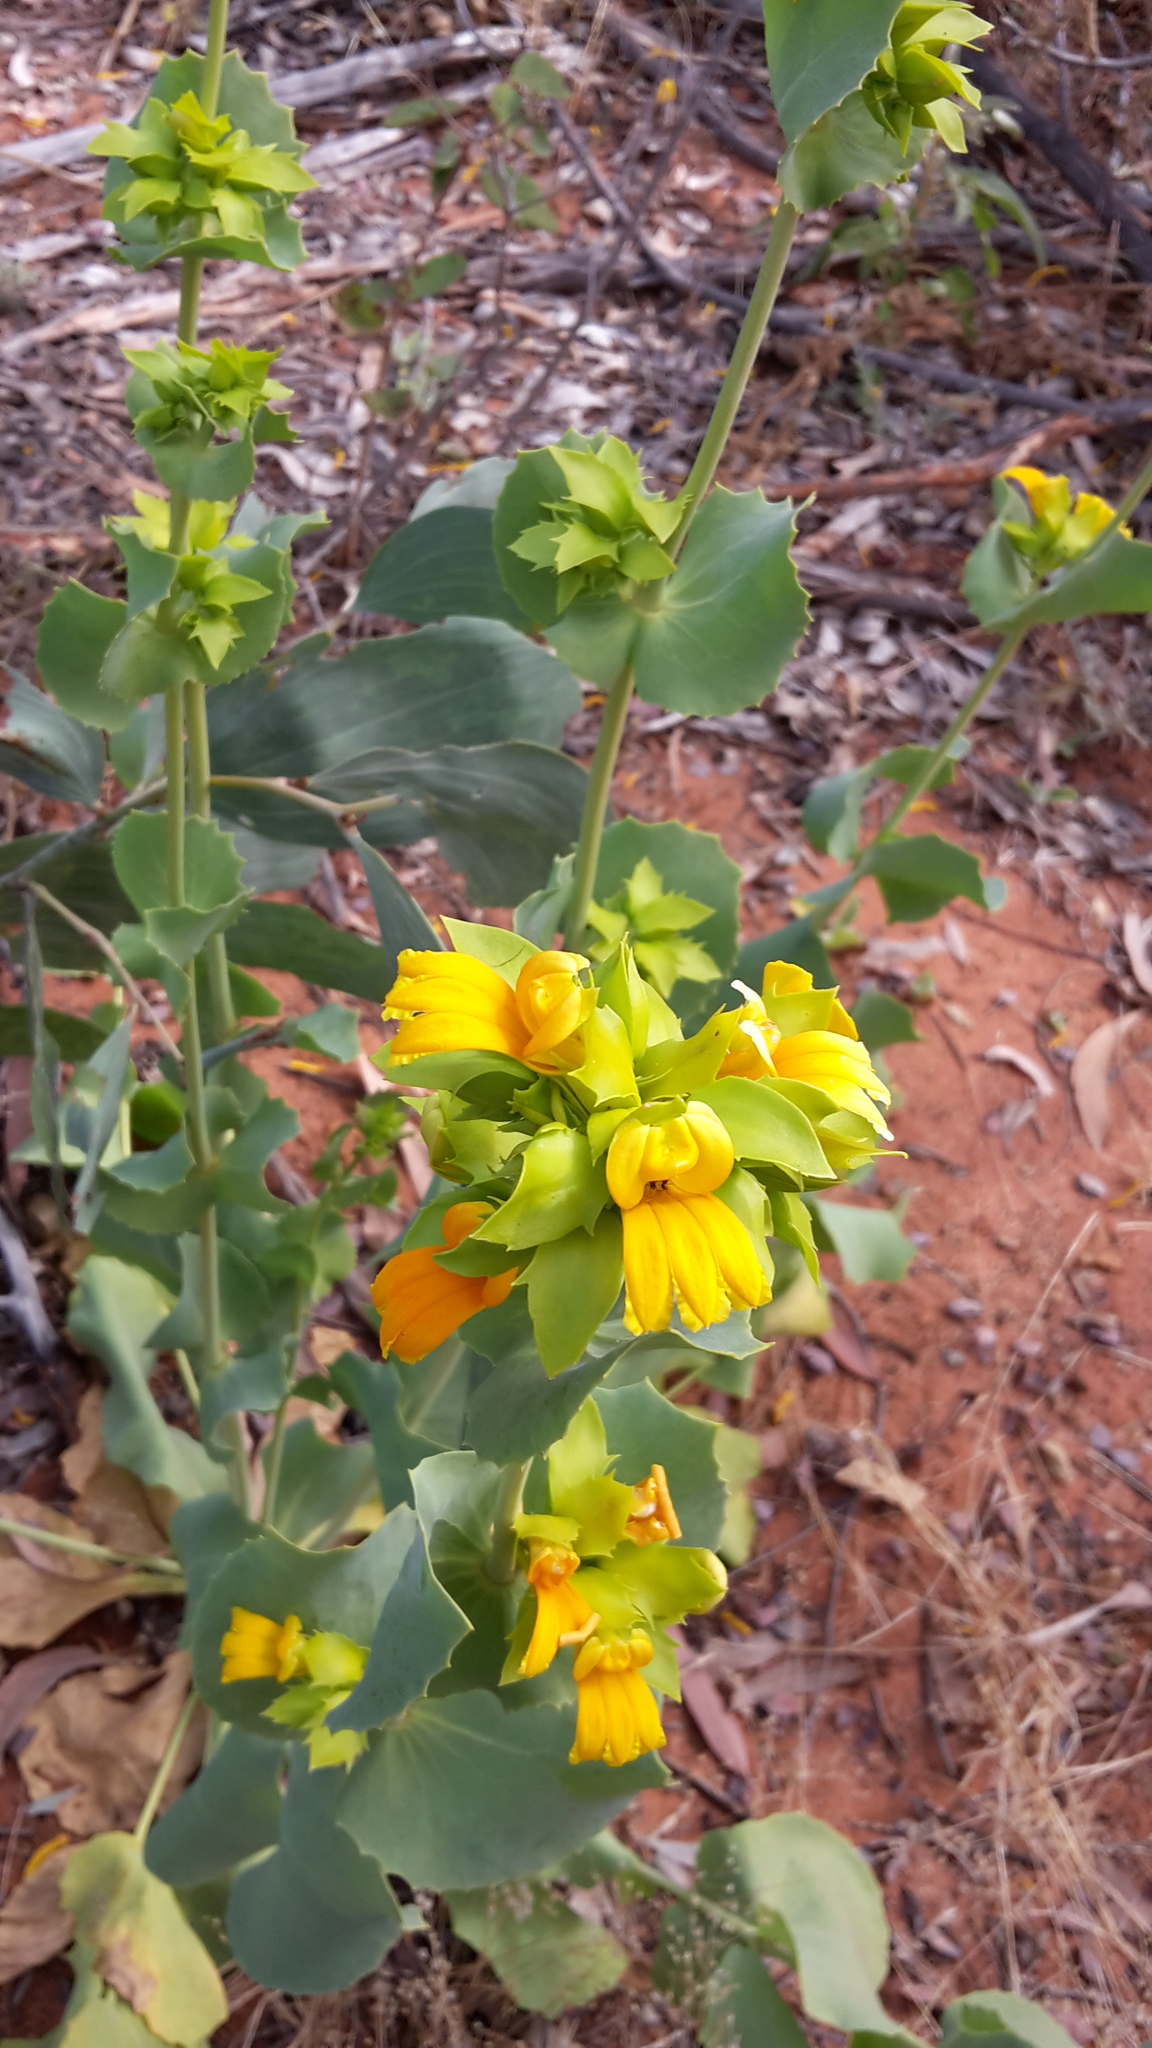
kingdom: Plantae
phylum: Tracheophyta
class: Magnoliopsida
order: Asterales
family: Goodeniaceae
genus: Goodenia
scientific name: Goodenia panduriformis
